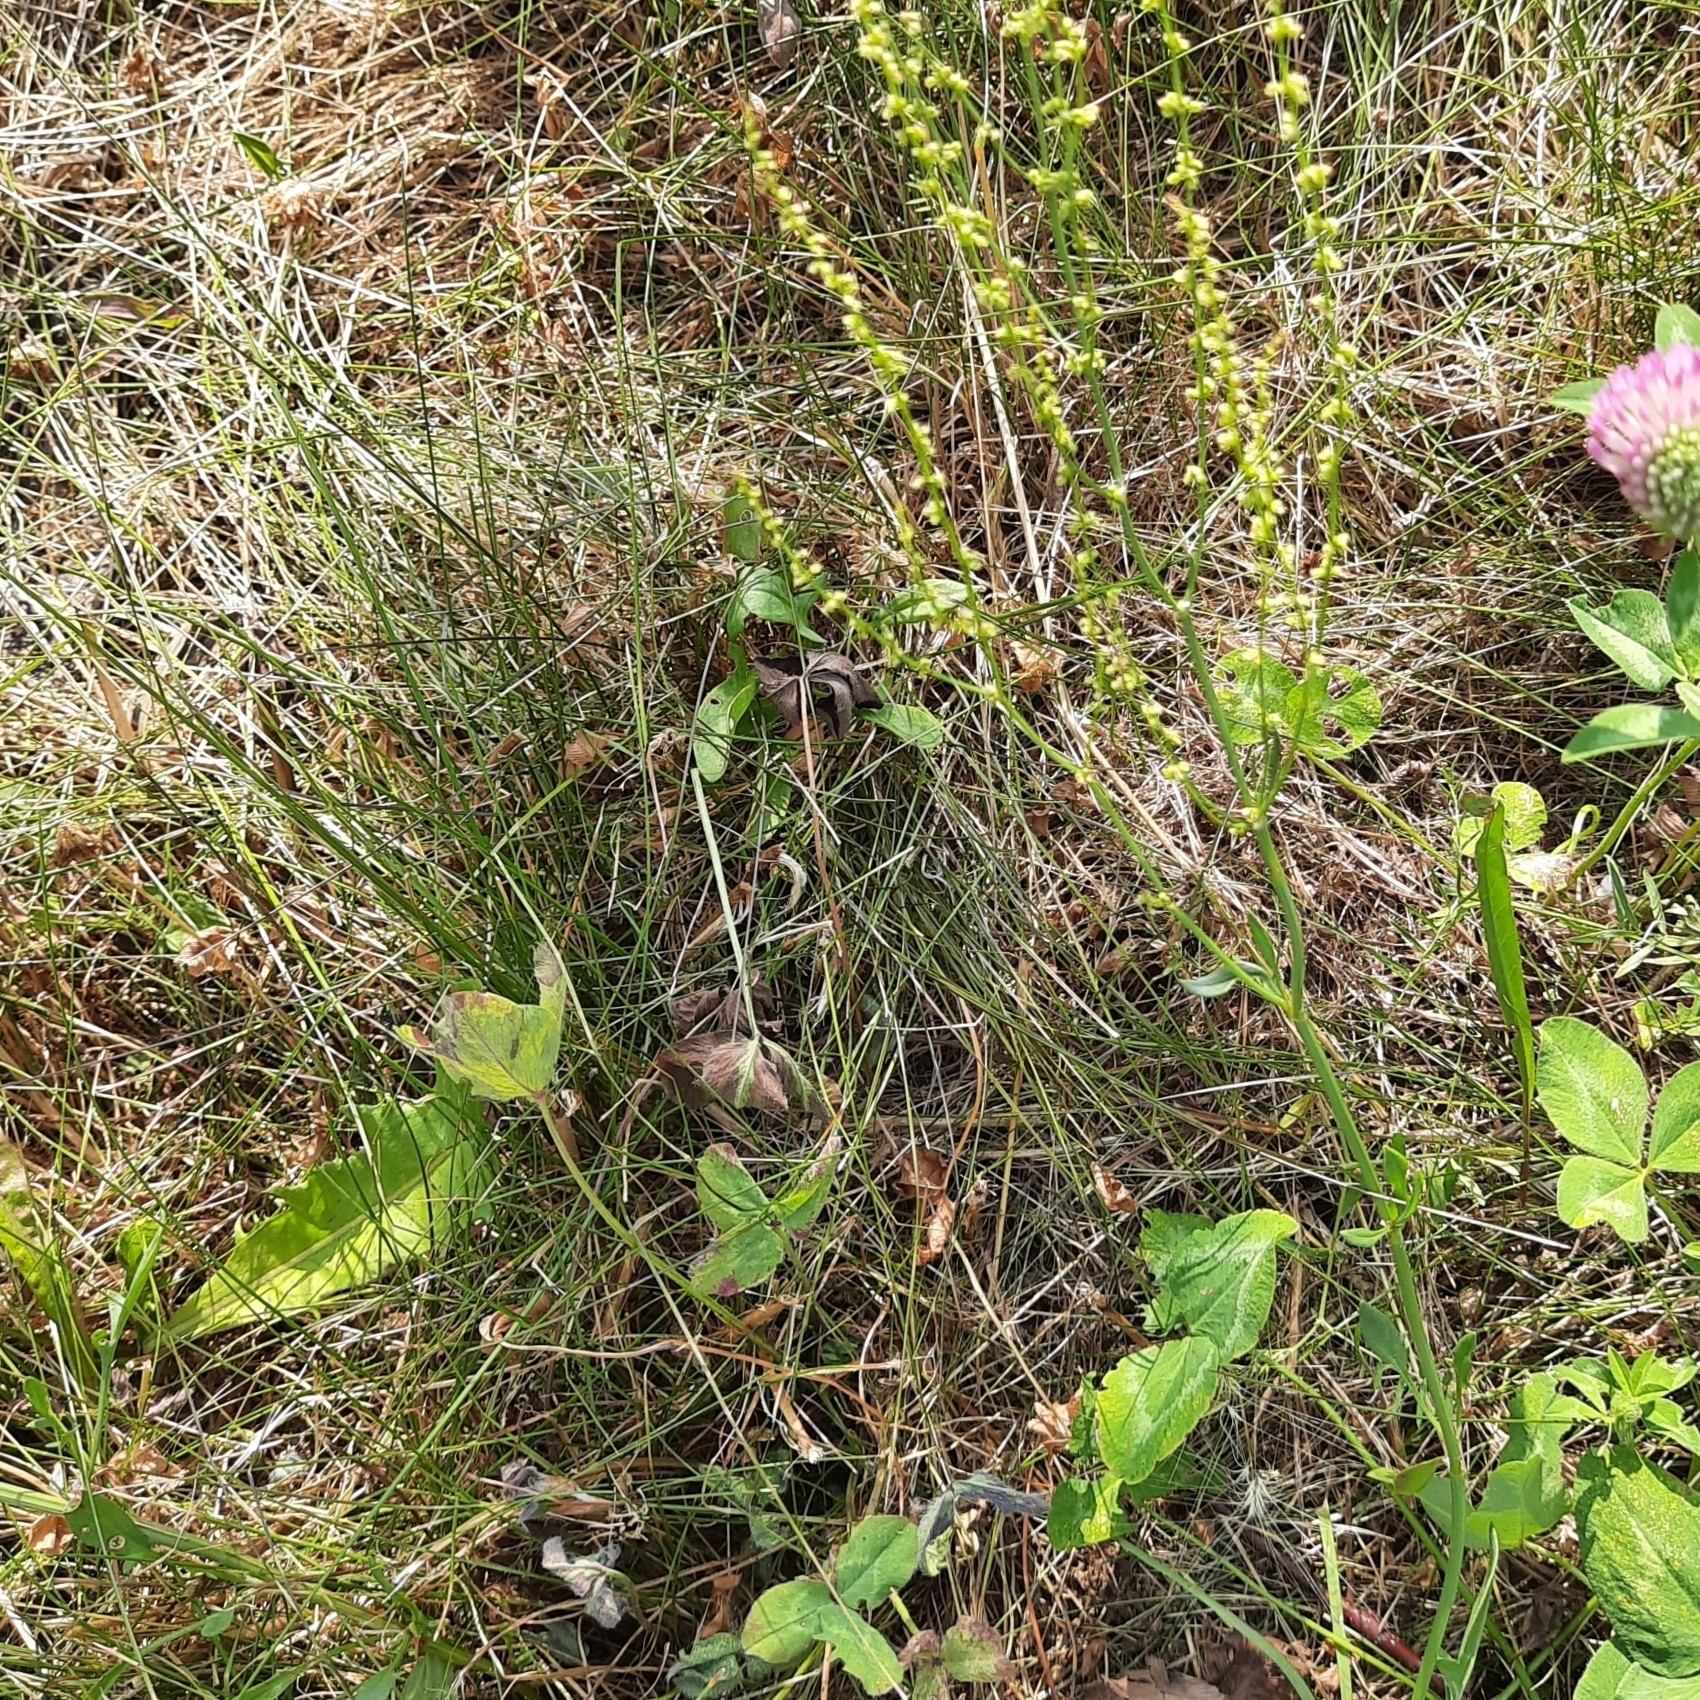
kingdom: Plantae
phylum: Tracheophyta
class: Magnoliopsida
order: Caryophyllales
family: Polygonaceae
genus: Rumex
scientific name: Rumex acetosella
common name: Common sheep sorrel
